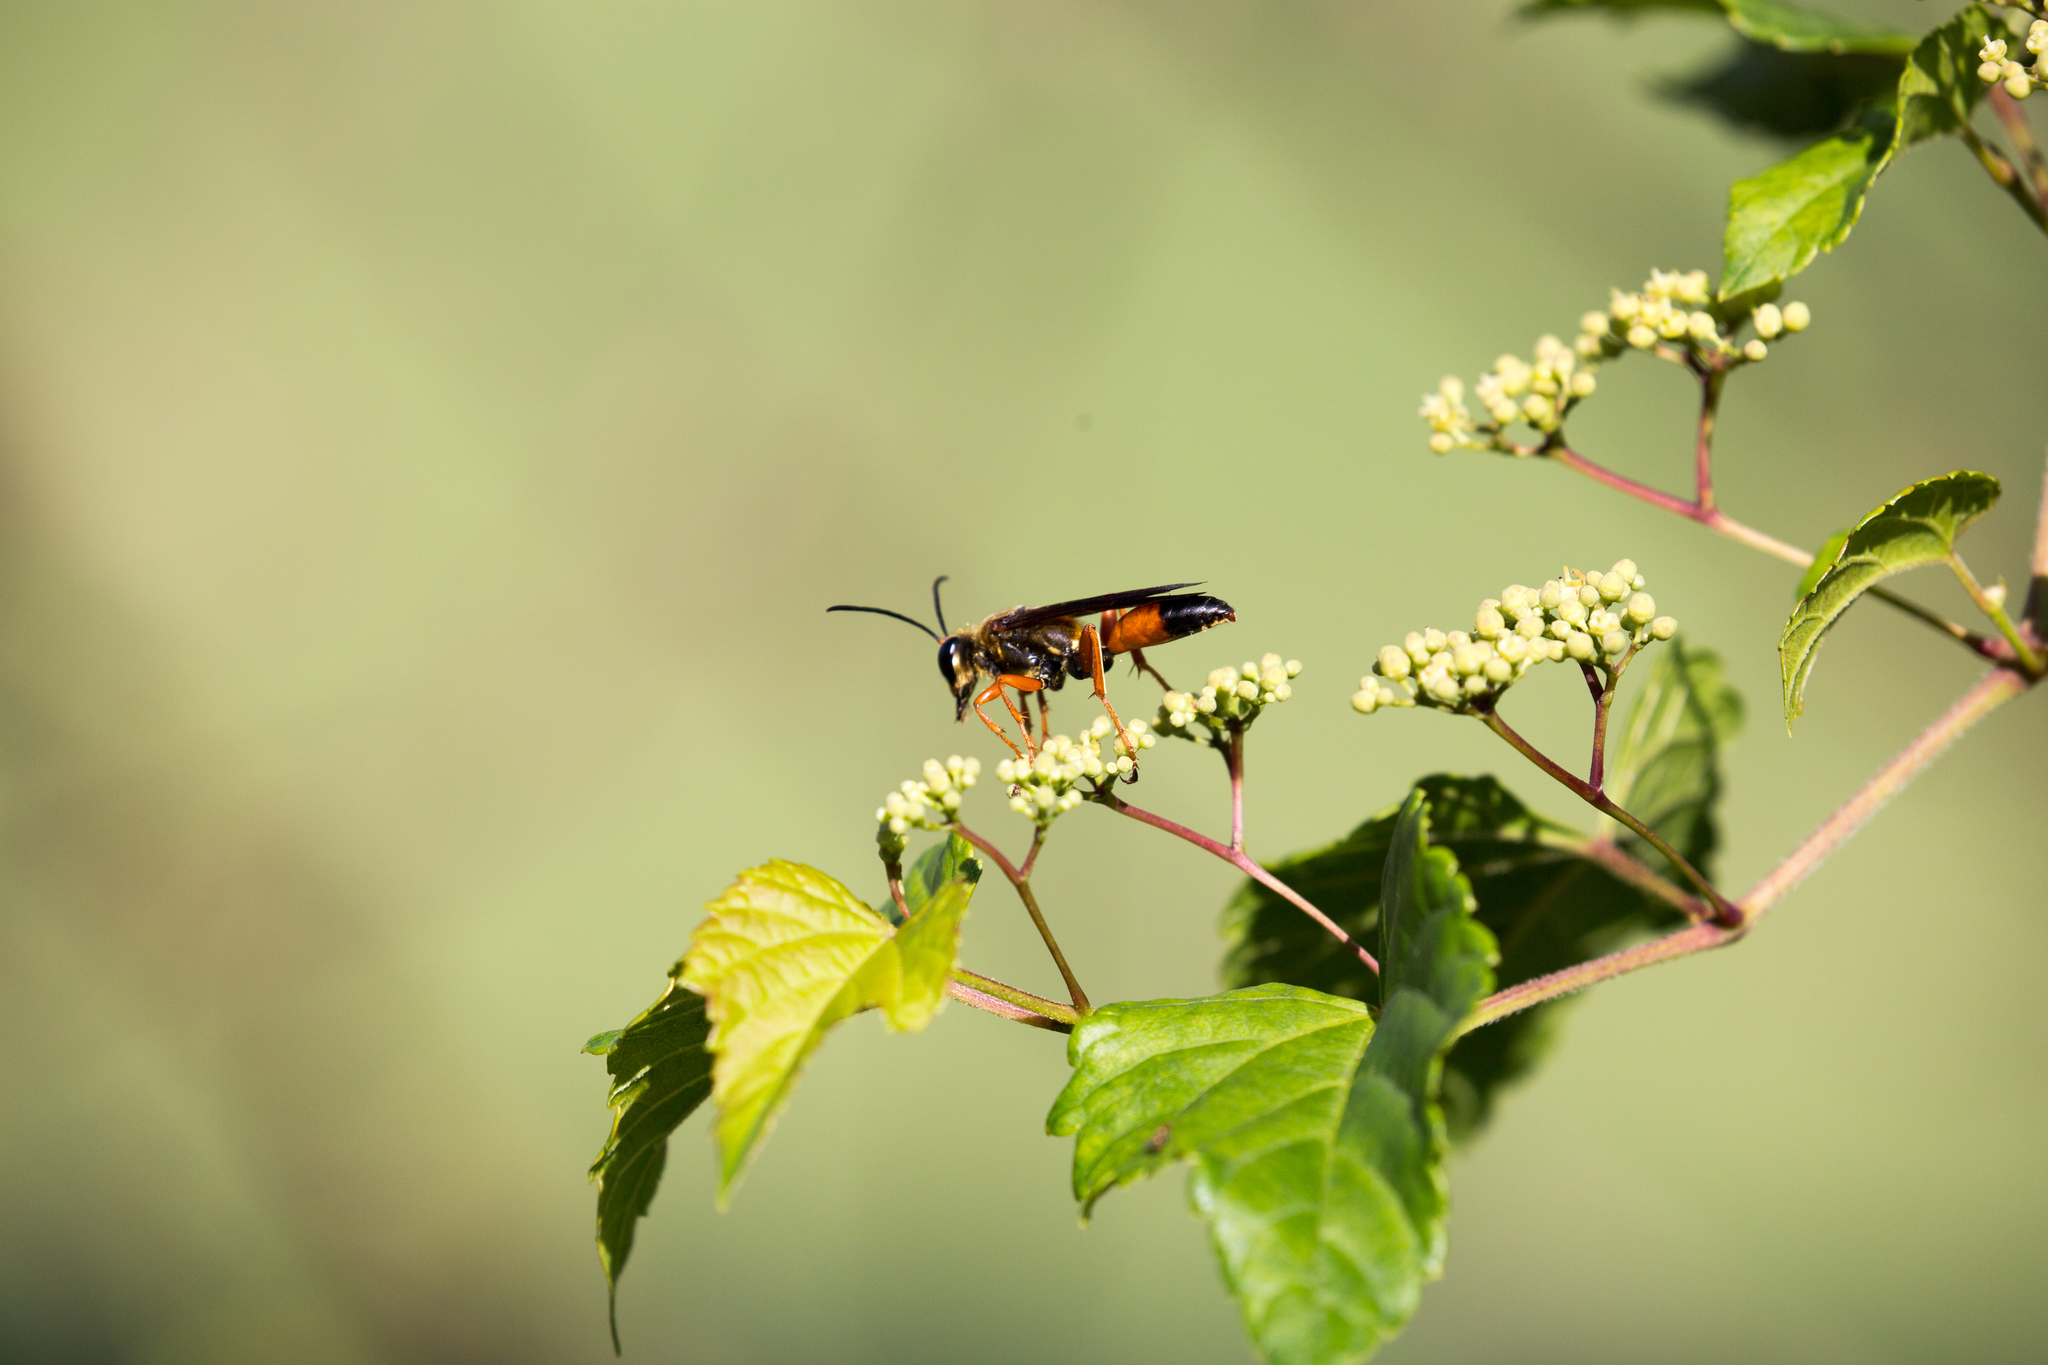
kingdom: Animalia
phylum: Arthropoda
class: Insecta
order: Hymenoptera
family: Sphecidae
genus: Sphex
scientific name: Sphex ichneumoneus
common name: Great golden digger wasp
